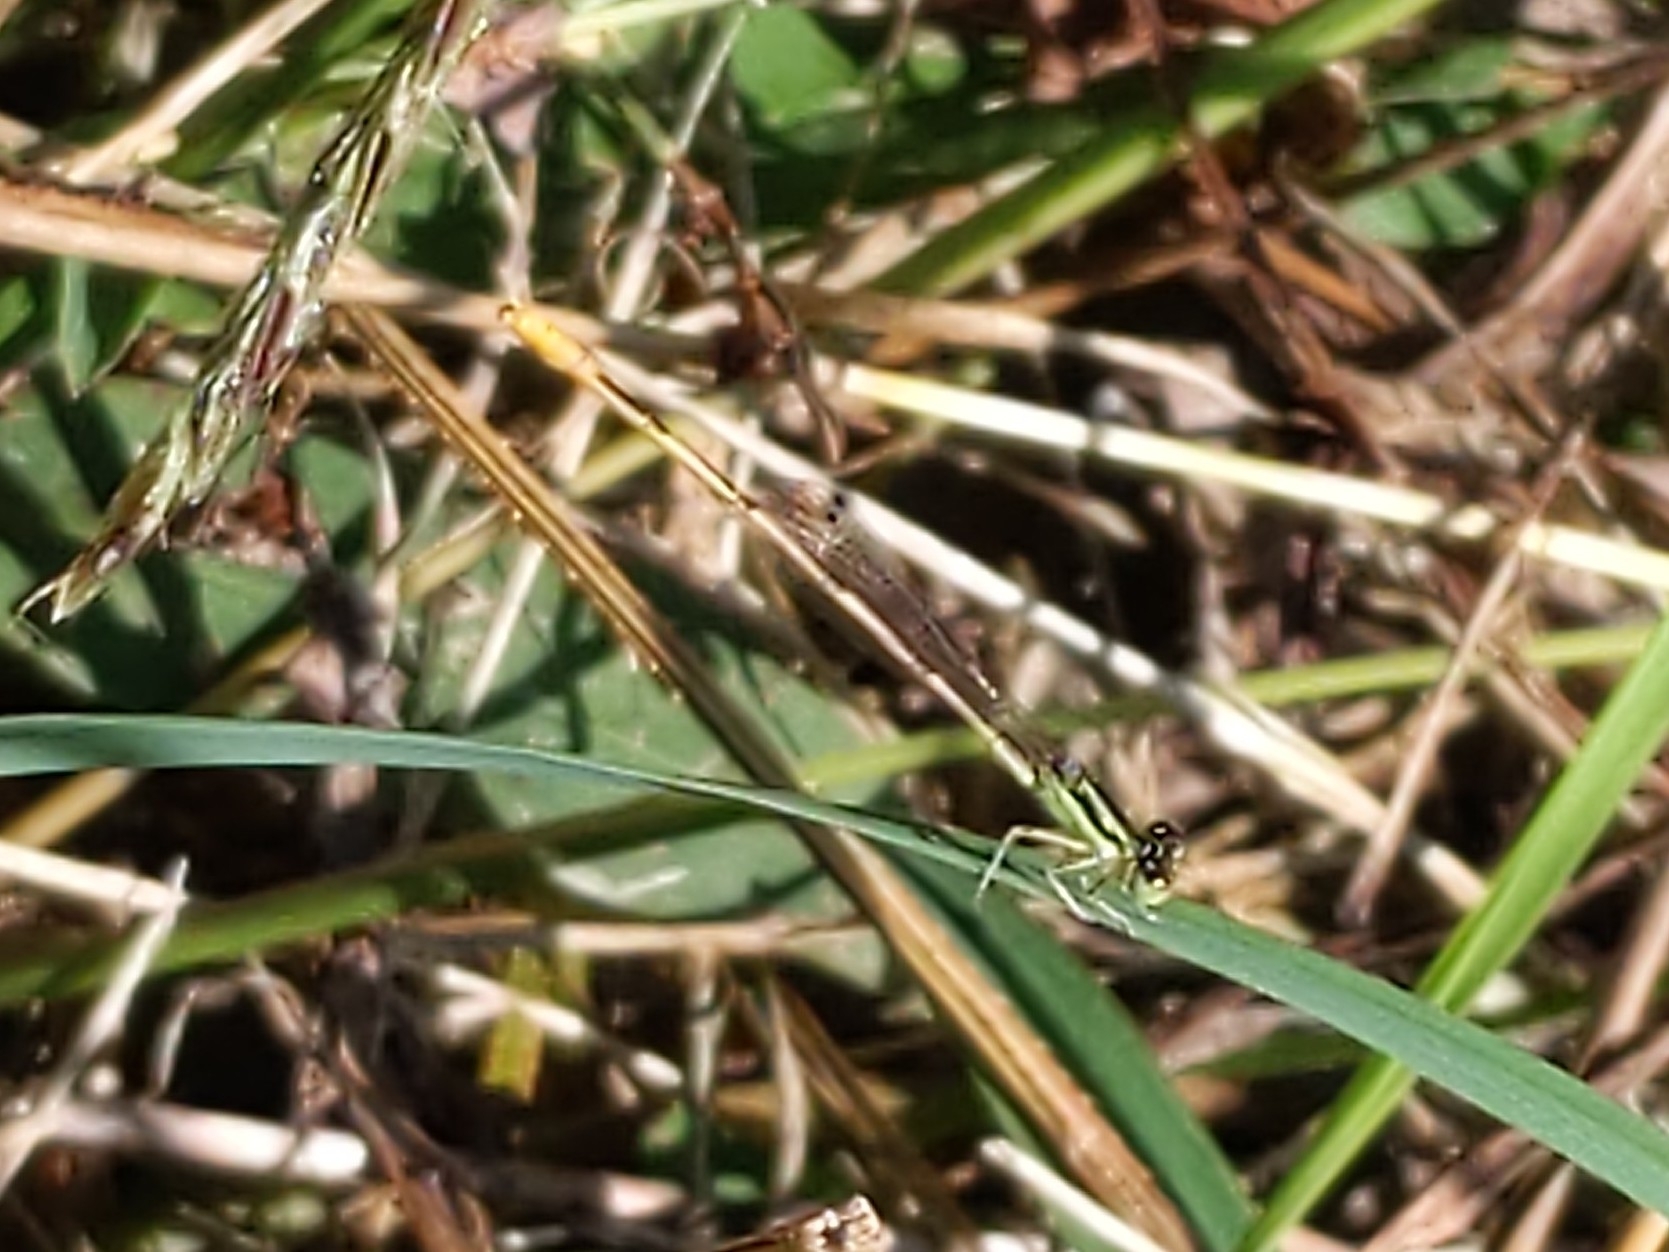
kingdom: Animalia
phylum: Arthropoda
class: Insecta
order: Odonata
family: Coenagrionidae
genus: Ischnura
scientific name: Ischnura hastata
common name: Citrine forktail
